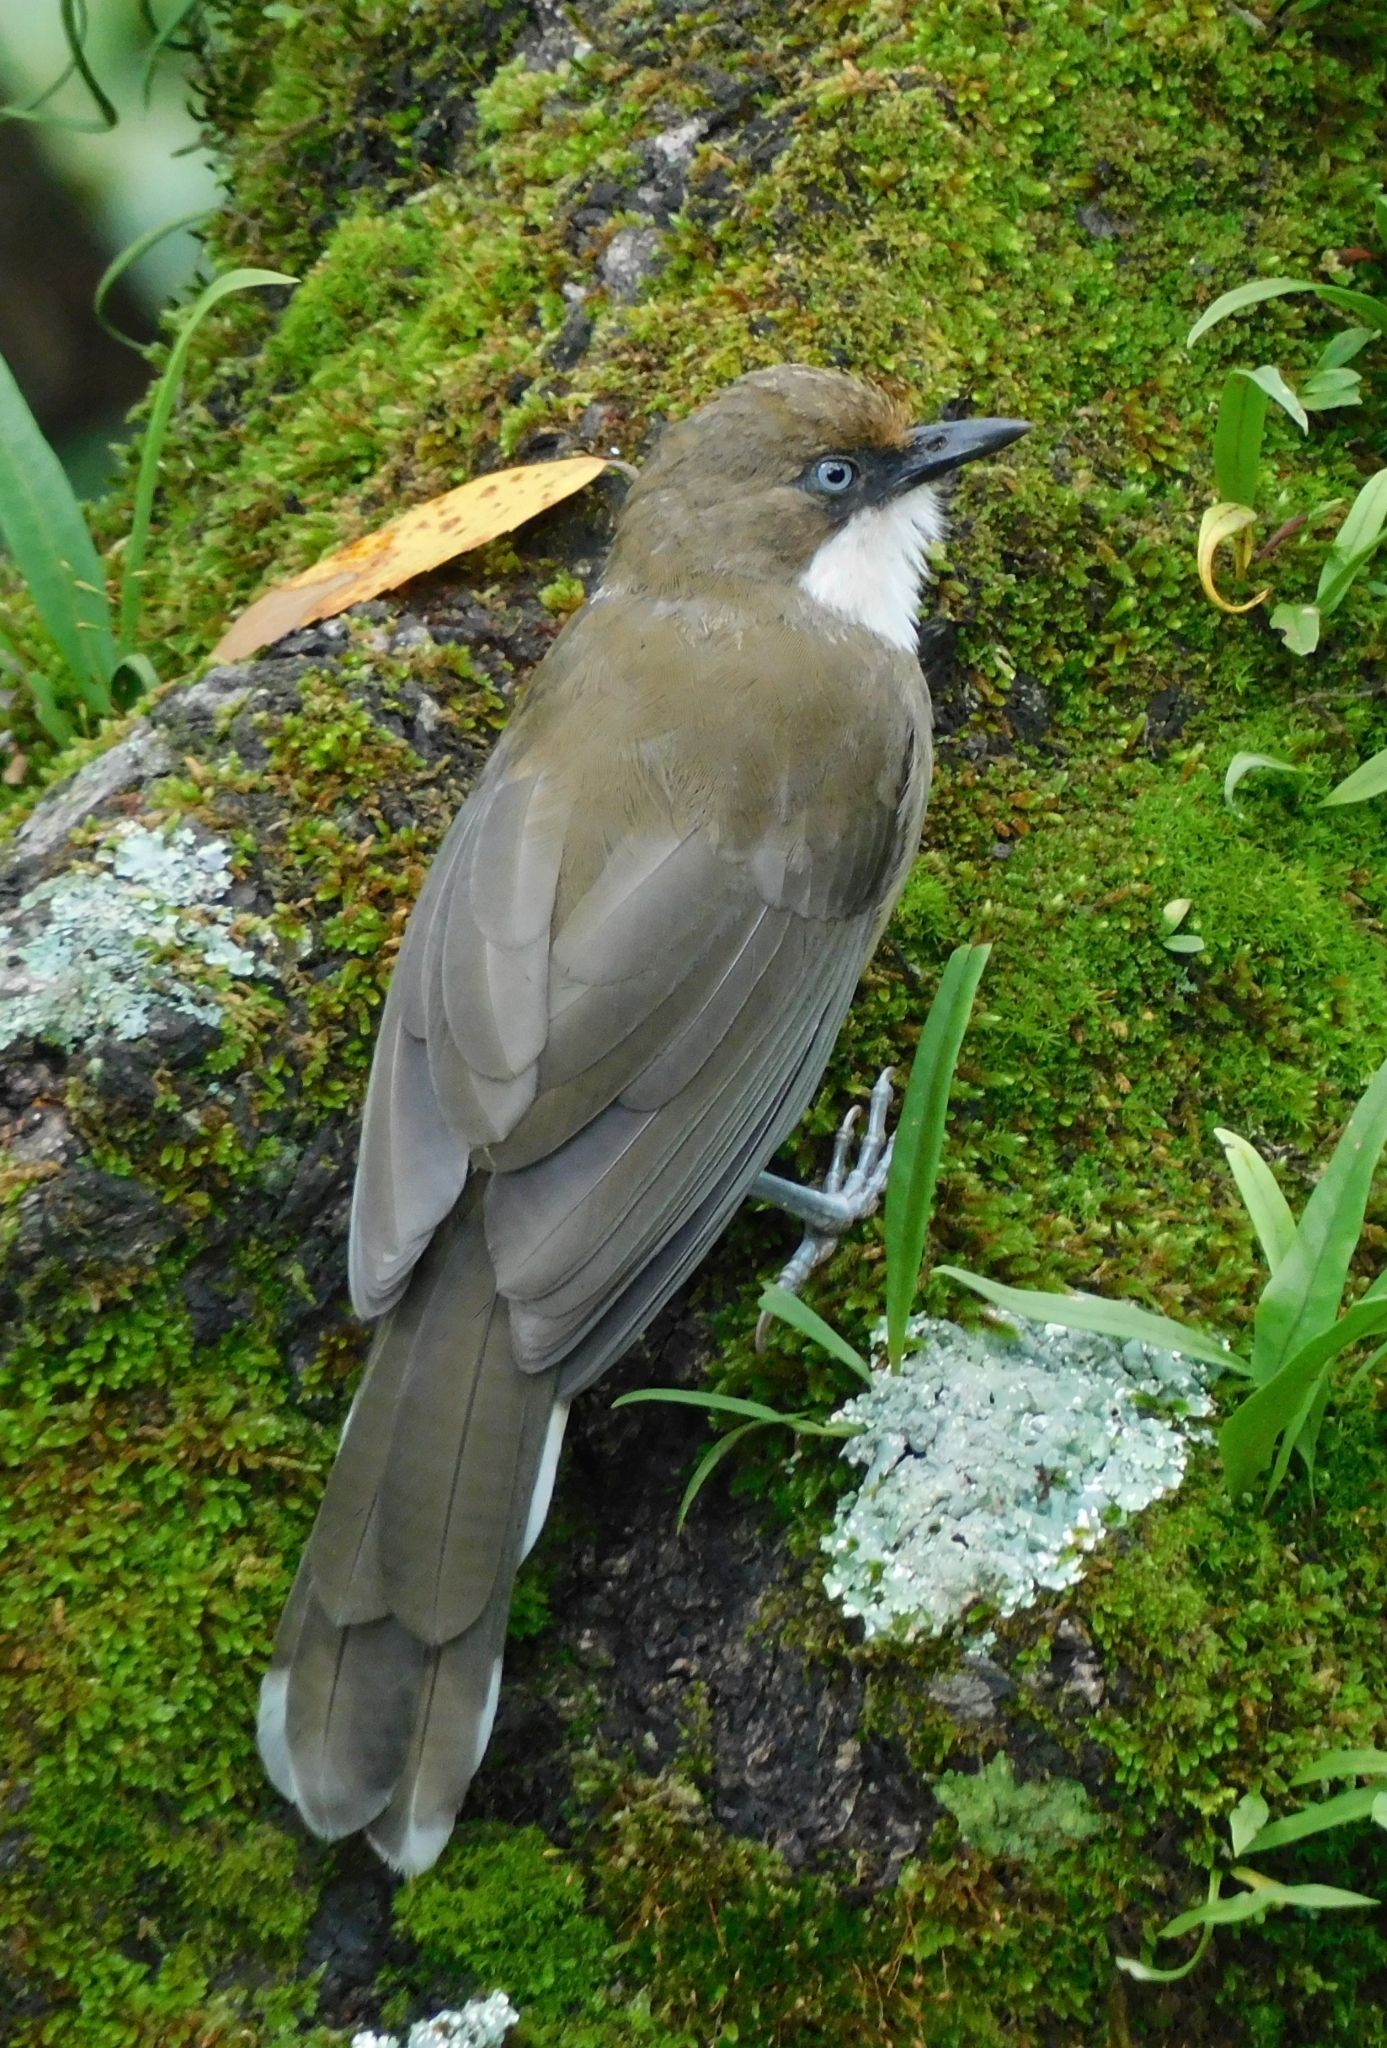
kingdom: Animalia
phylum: Chordata
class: Aves
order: Passeriformes
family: Leiothrichidae
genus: Garrulax
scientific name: Garrulax albogularis
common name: White-throated laughingthrush
